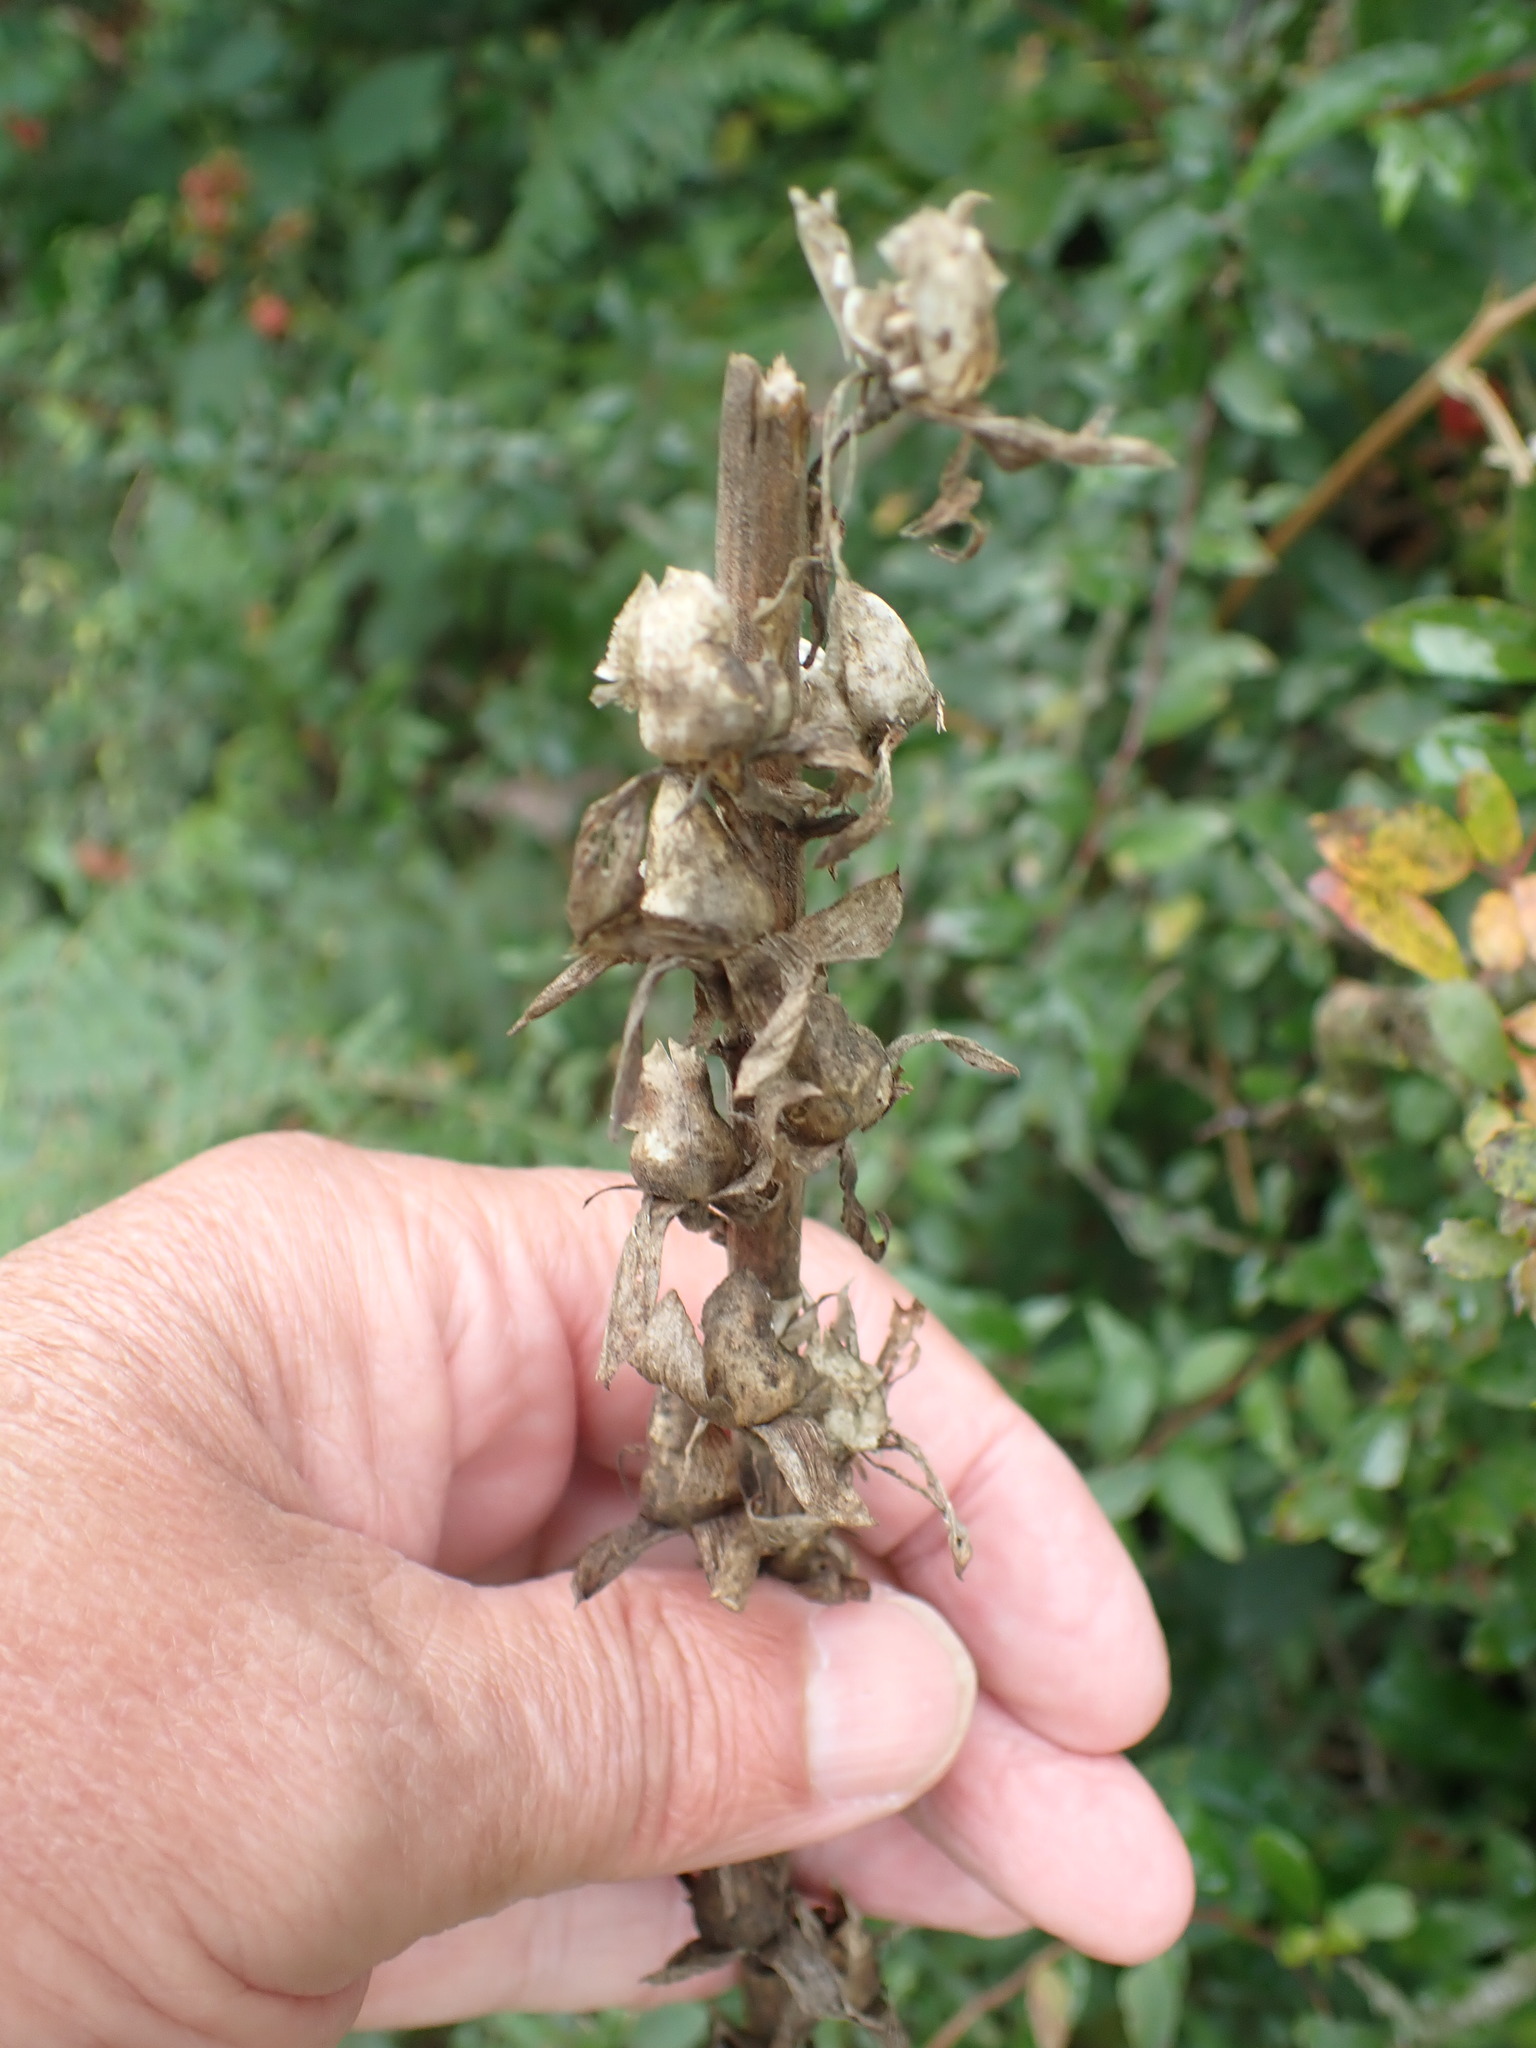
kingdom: Plantae
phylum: Tracheophyta
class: Magnoliopsida
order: Lamiales
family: Plantaginaceae
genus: Digitalis
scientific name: Digitalis purpurea
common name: Foxglove
